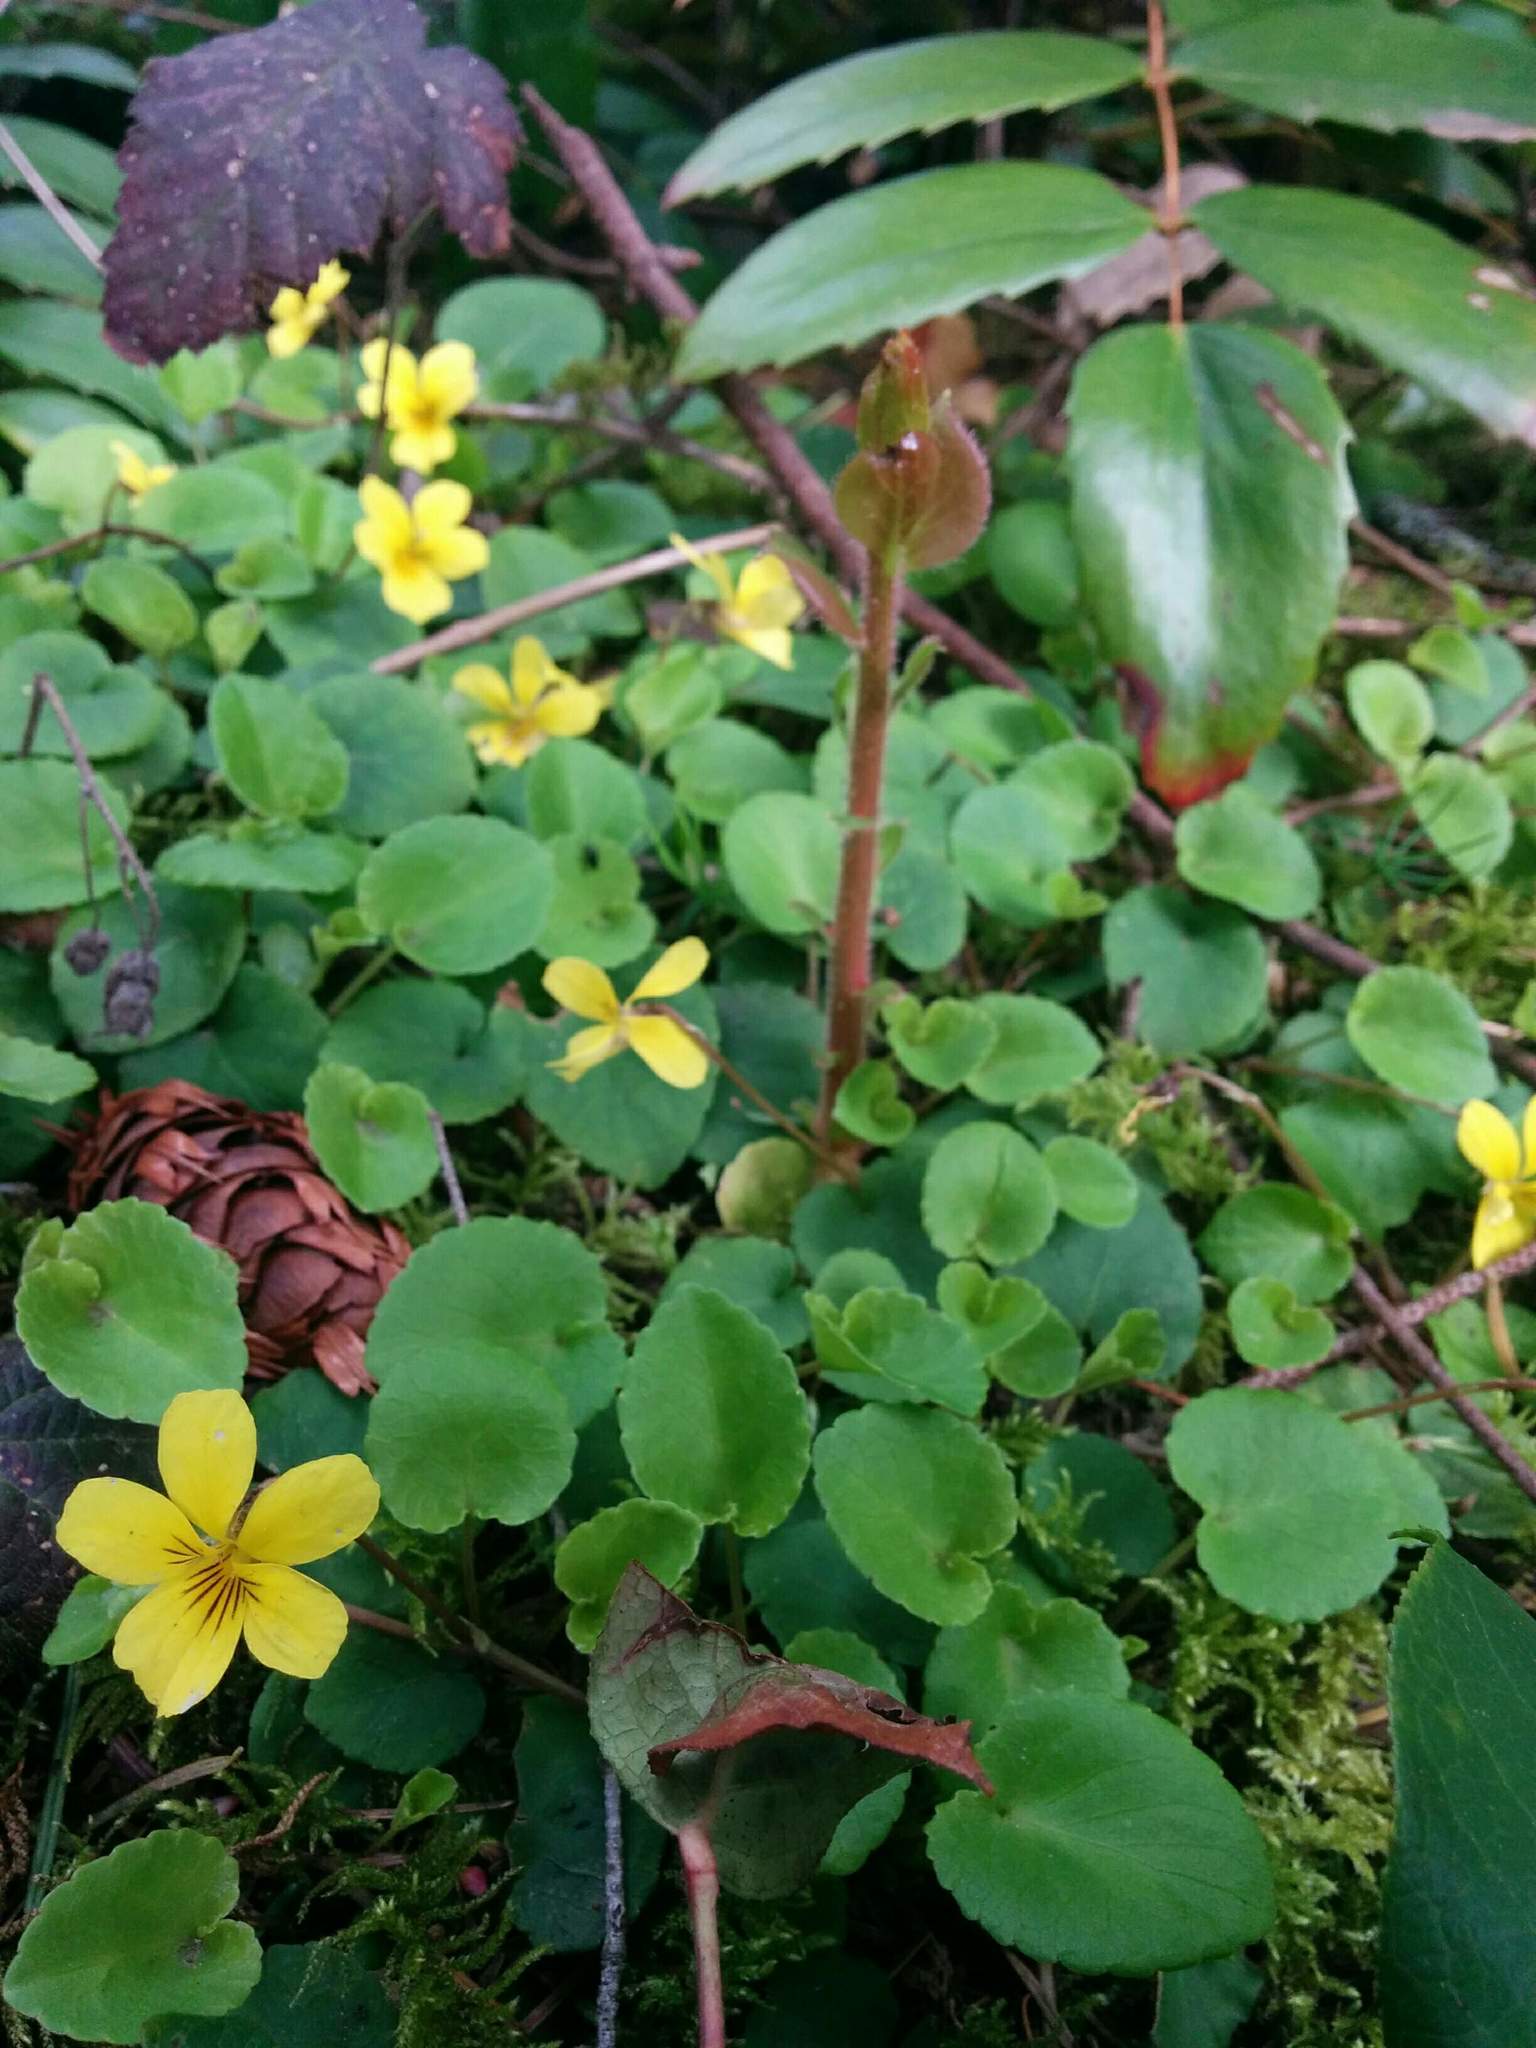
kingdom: Plantae
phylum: Tracheophyta
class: Magnoliopsida
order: Malpighiales
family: Violaceae
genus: Viola
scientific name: Viola sempervirens
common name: Evergreen violet
